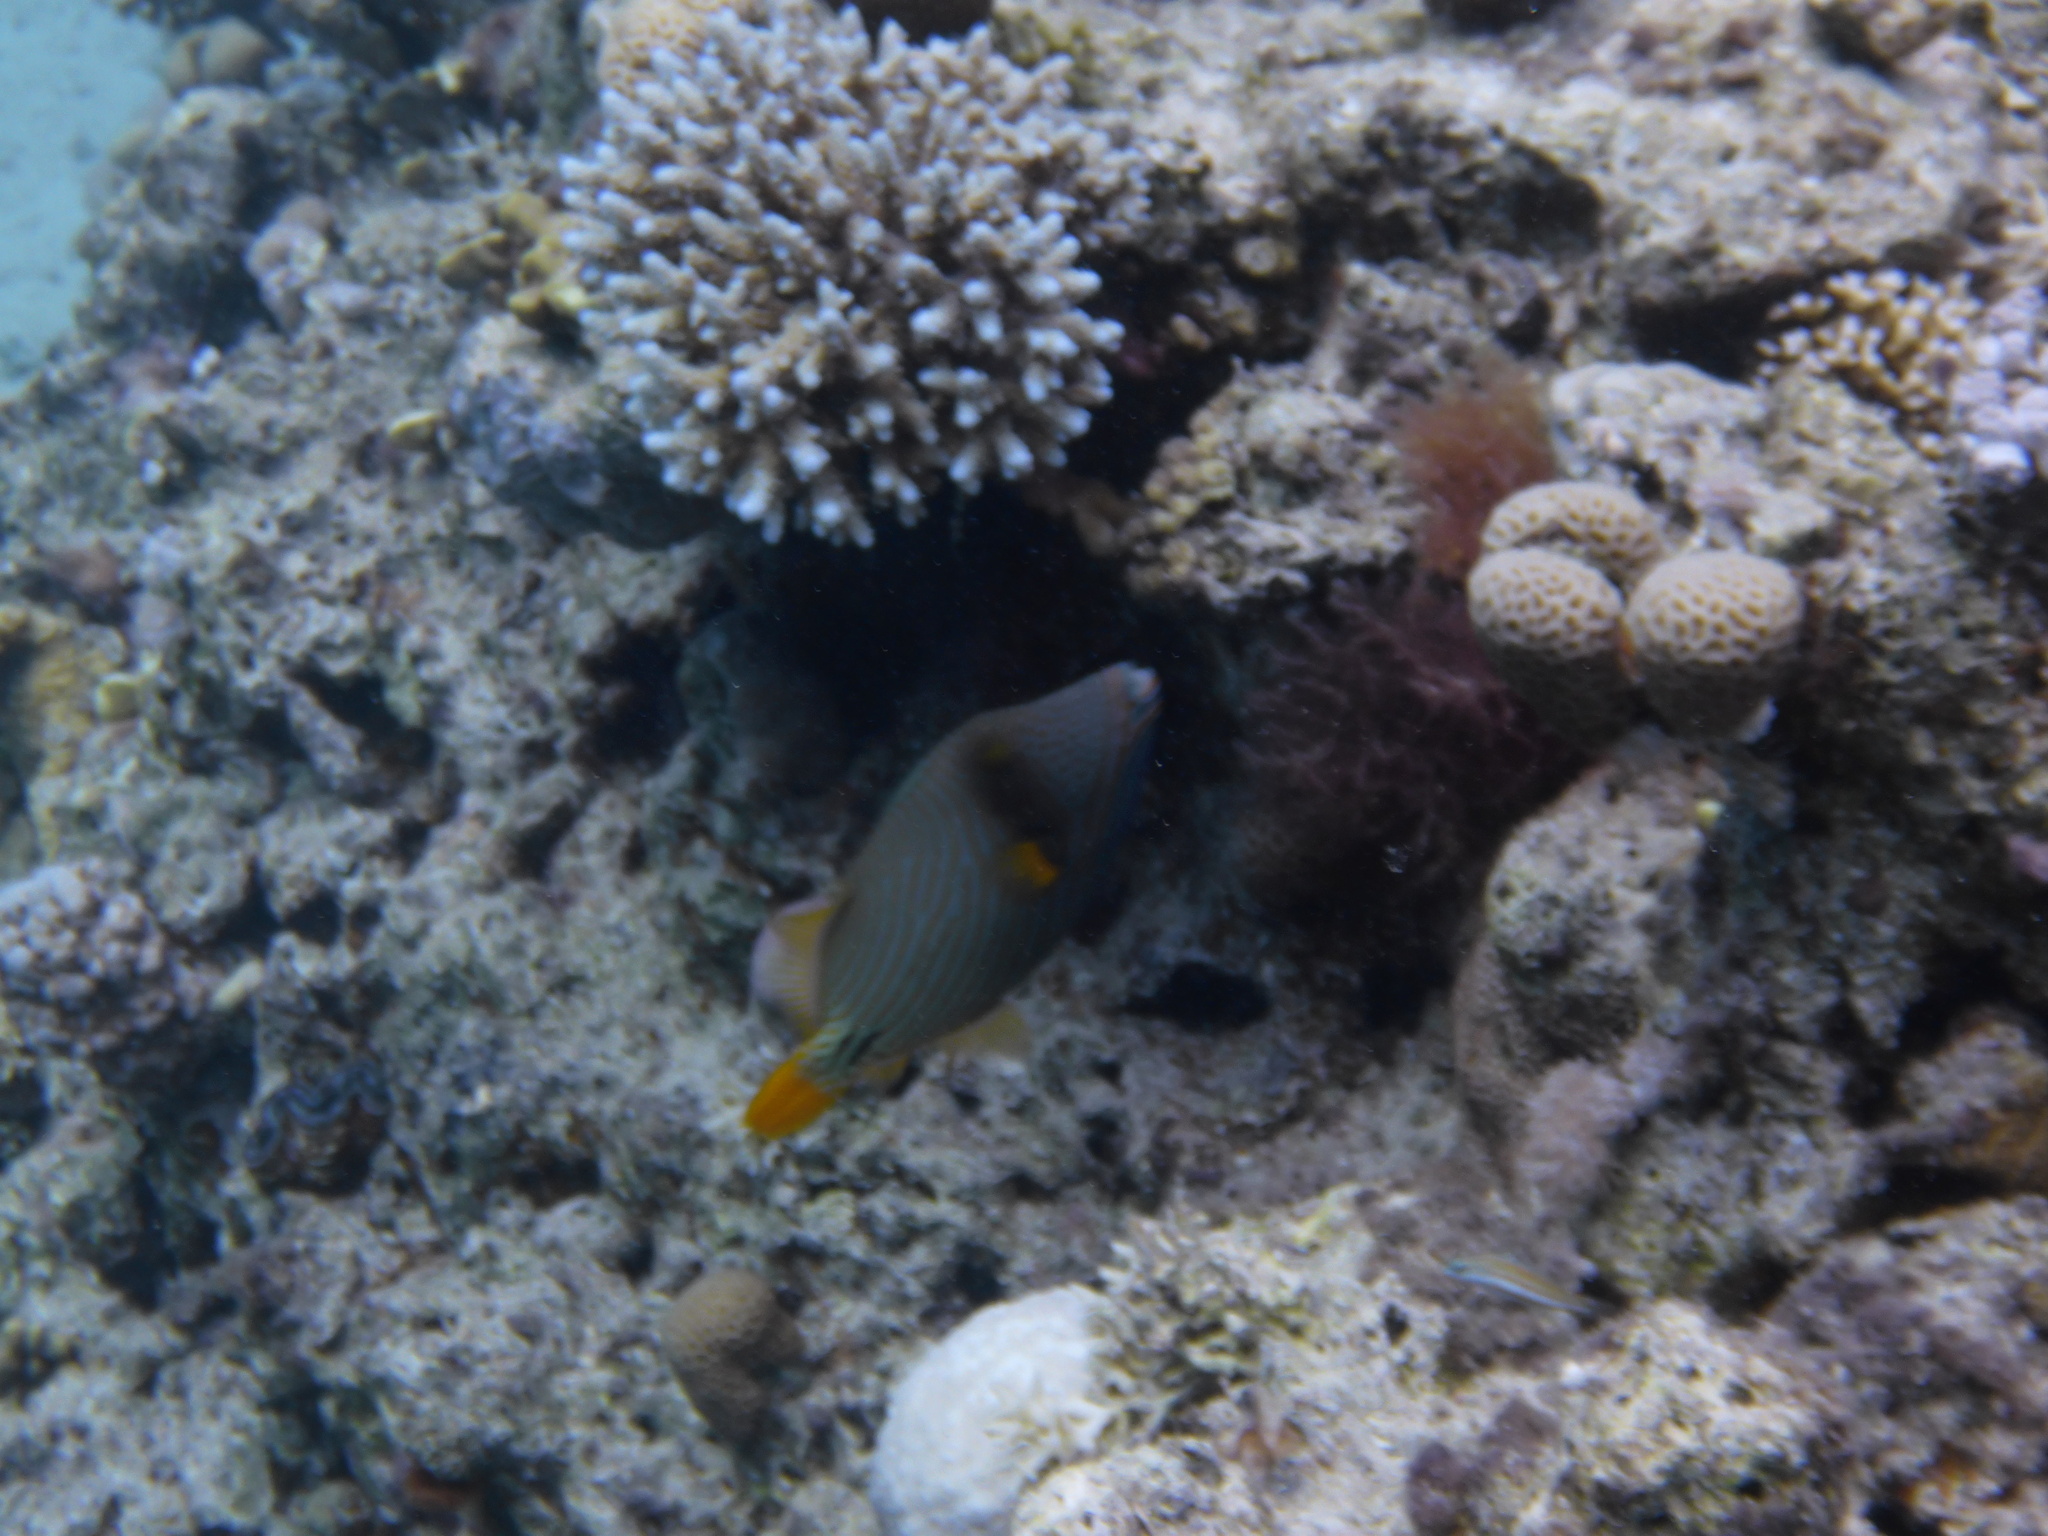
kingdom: Animalia
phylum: Chordata
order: Tetraodontiformes
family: Balistidae
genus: Balistapus
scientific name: Balistapus undulatus
